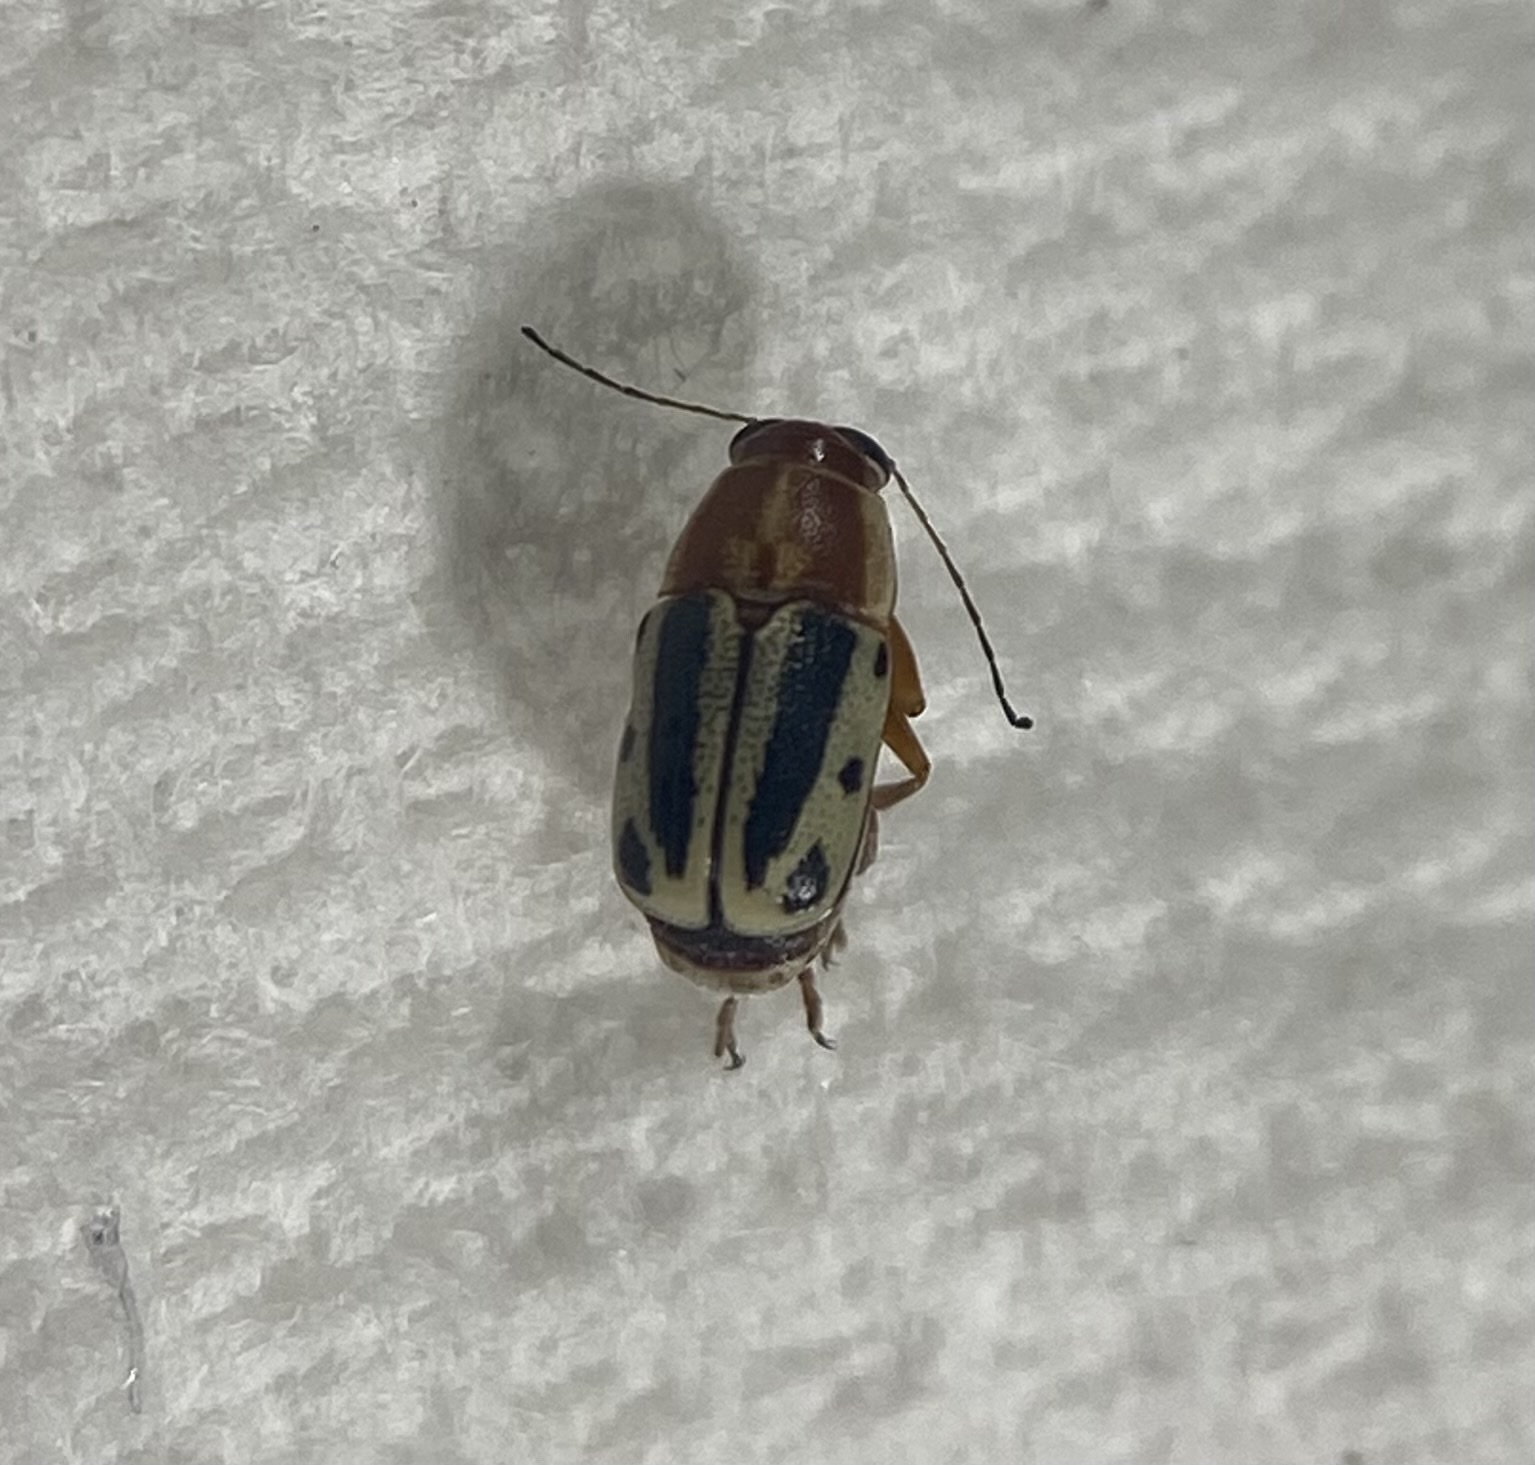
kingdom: Animalia
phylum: Arthropoda
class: Insecta
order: Coleoptera
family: Chrysomelidae
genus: Pachybrachis
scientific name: Pachybrachis bivittatus
